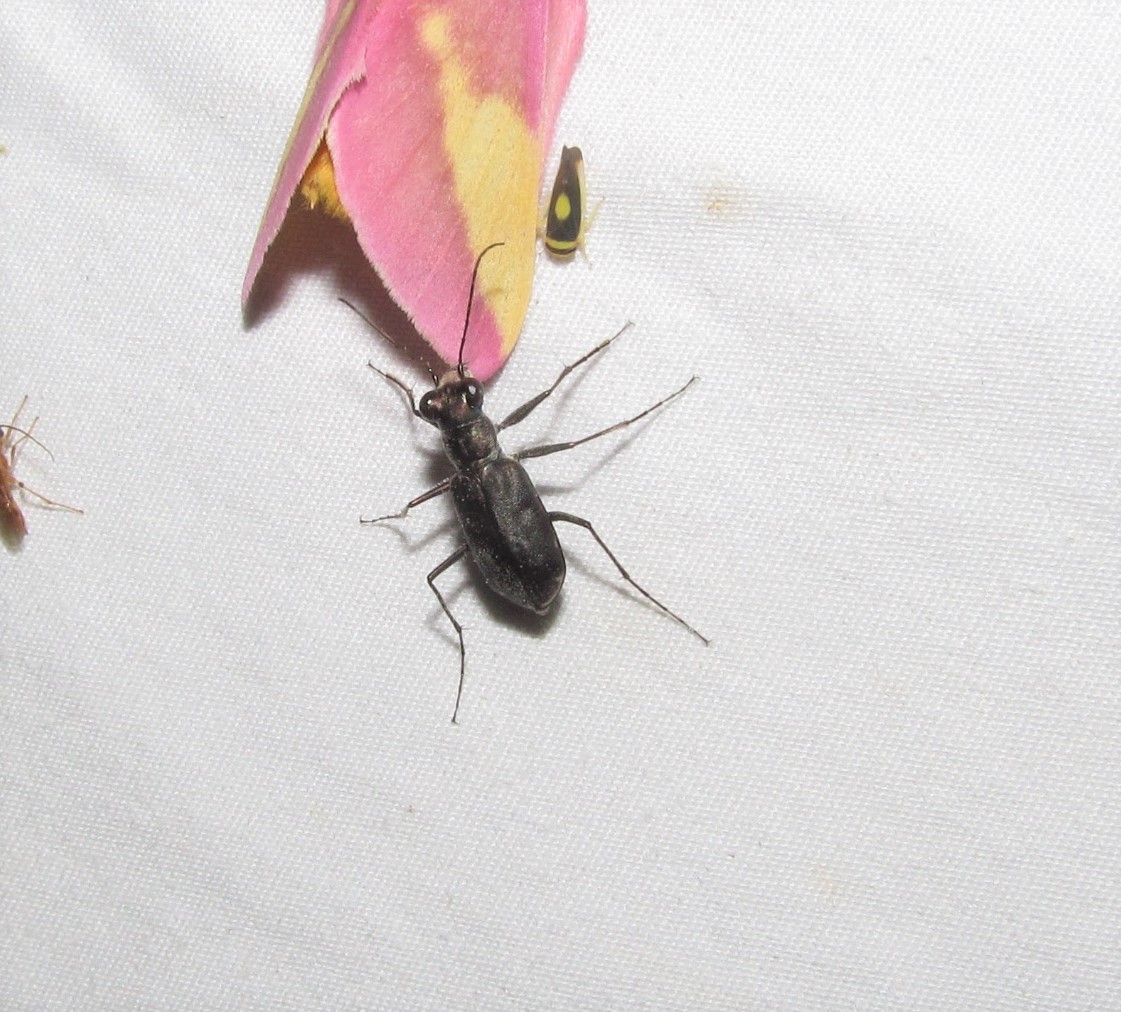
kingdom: Animalia
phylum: Arthropoda
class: Insecta
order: Coleoptera
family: Carabidae
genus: Cicindela
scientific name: Cicindela punctulata
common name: Punctured tiger beetle
